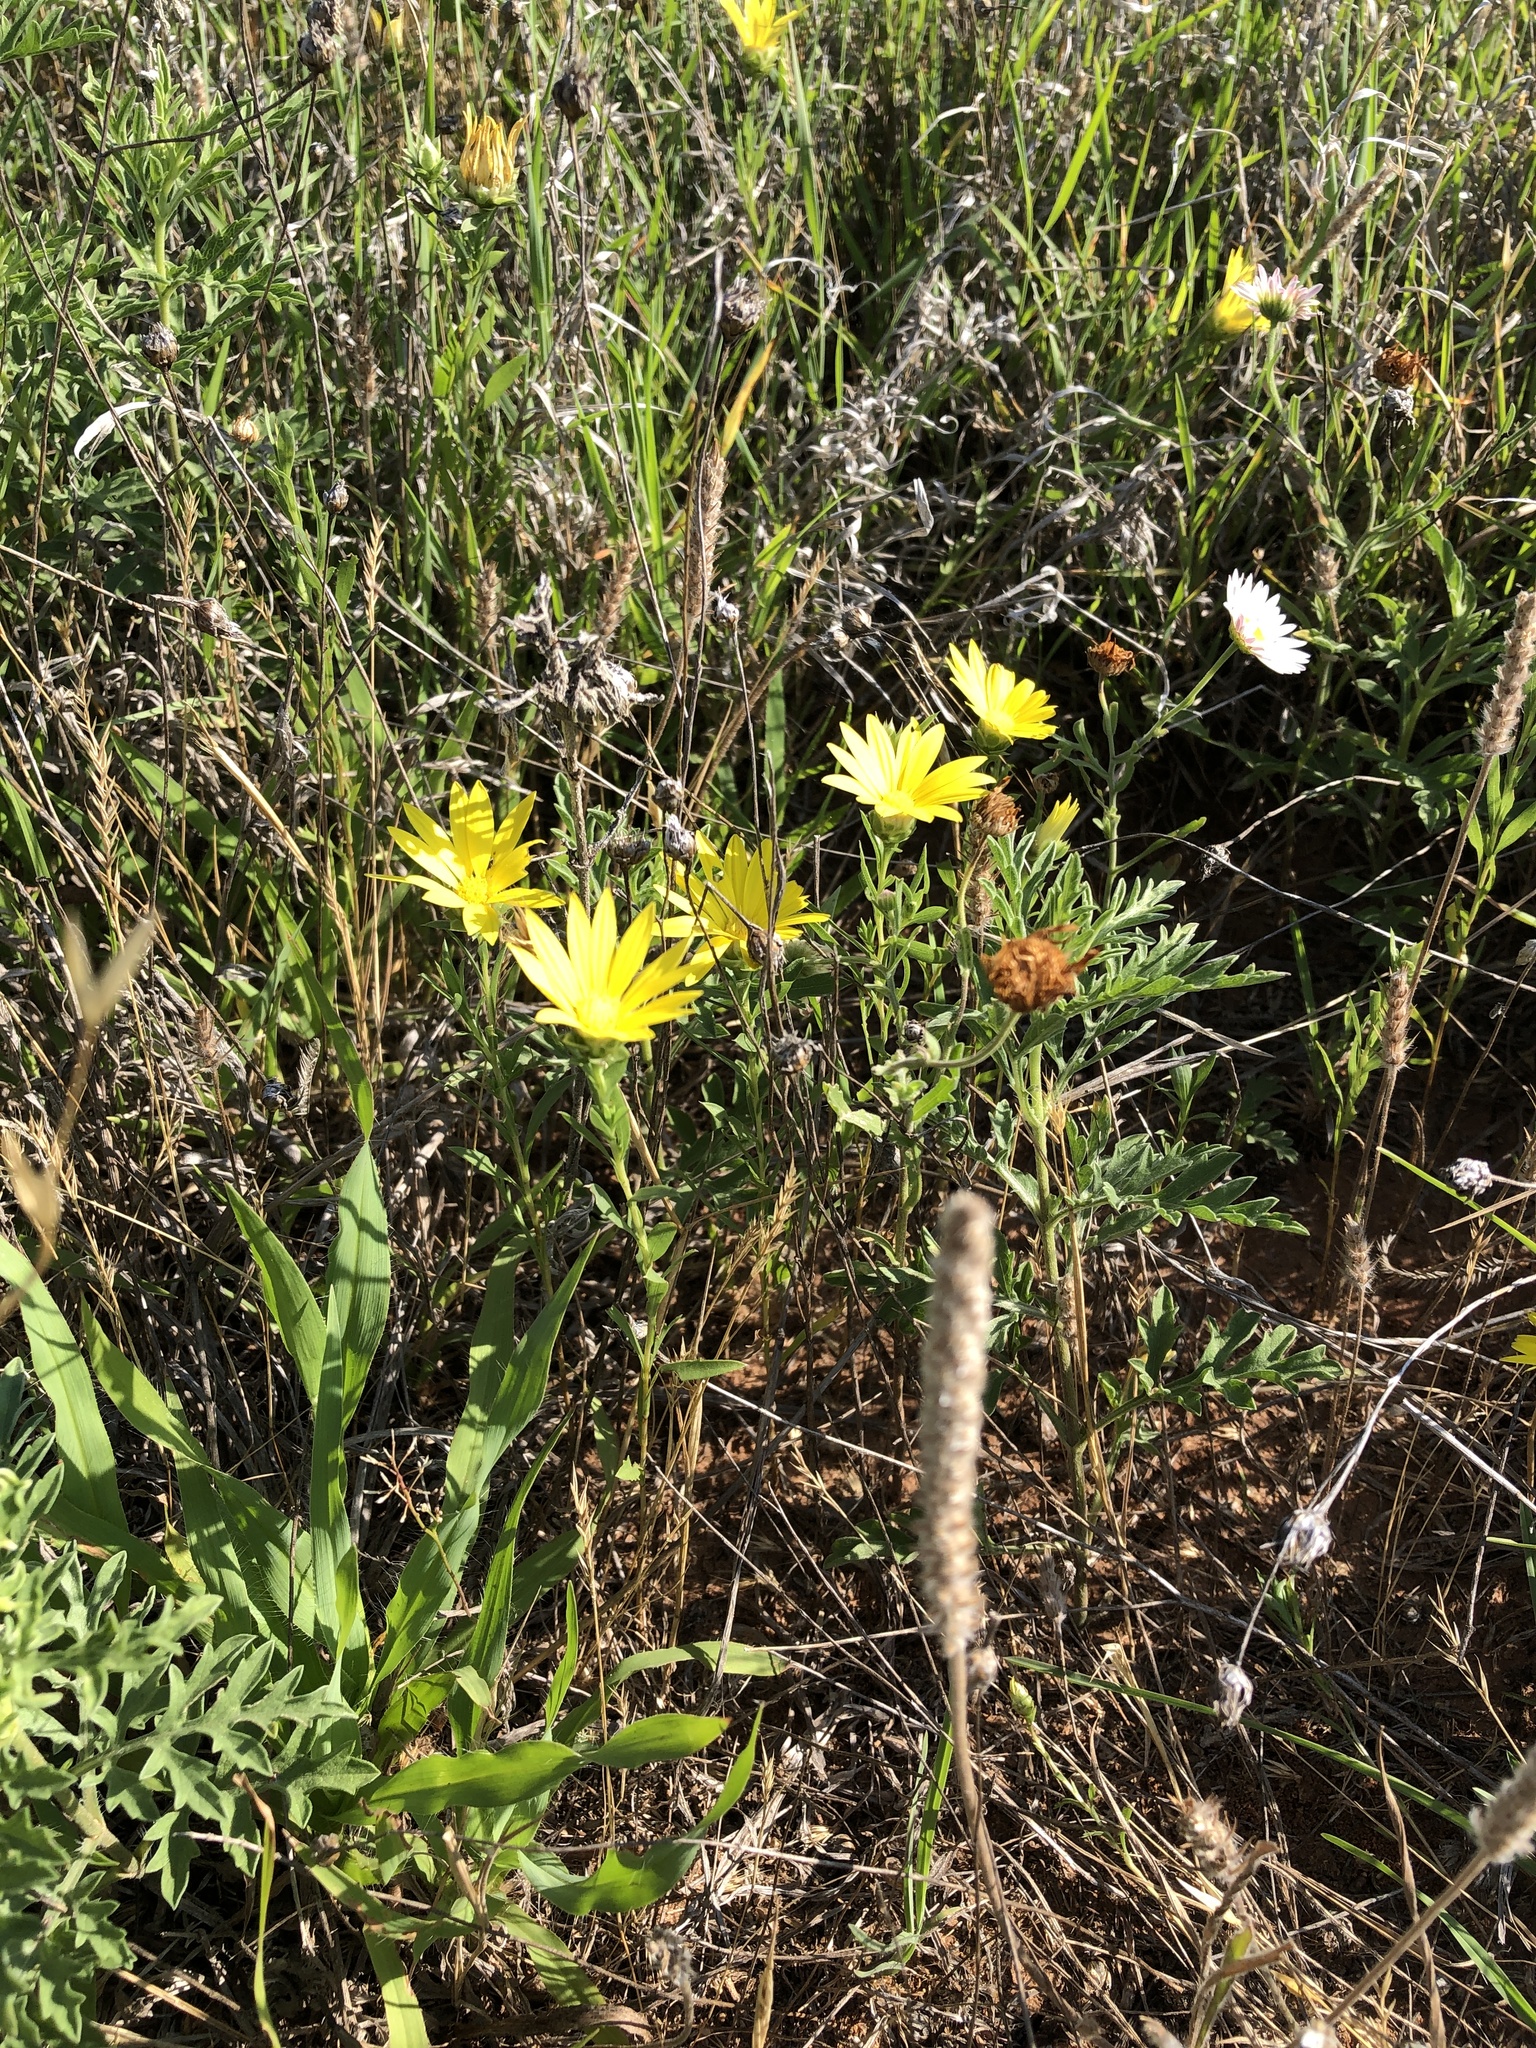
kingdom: Plantae
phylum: Tracheophyta
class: Magnoliopsida
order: Asterales
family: Asteraceae
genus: Xanthisma
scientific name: Xanthisma texanum
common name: Texas sleepy daisy
